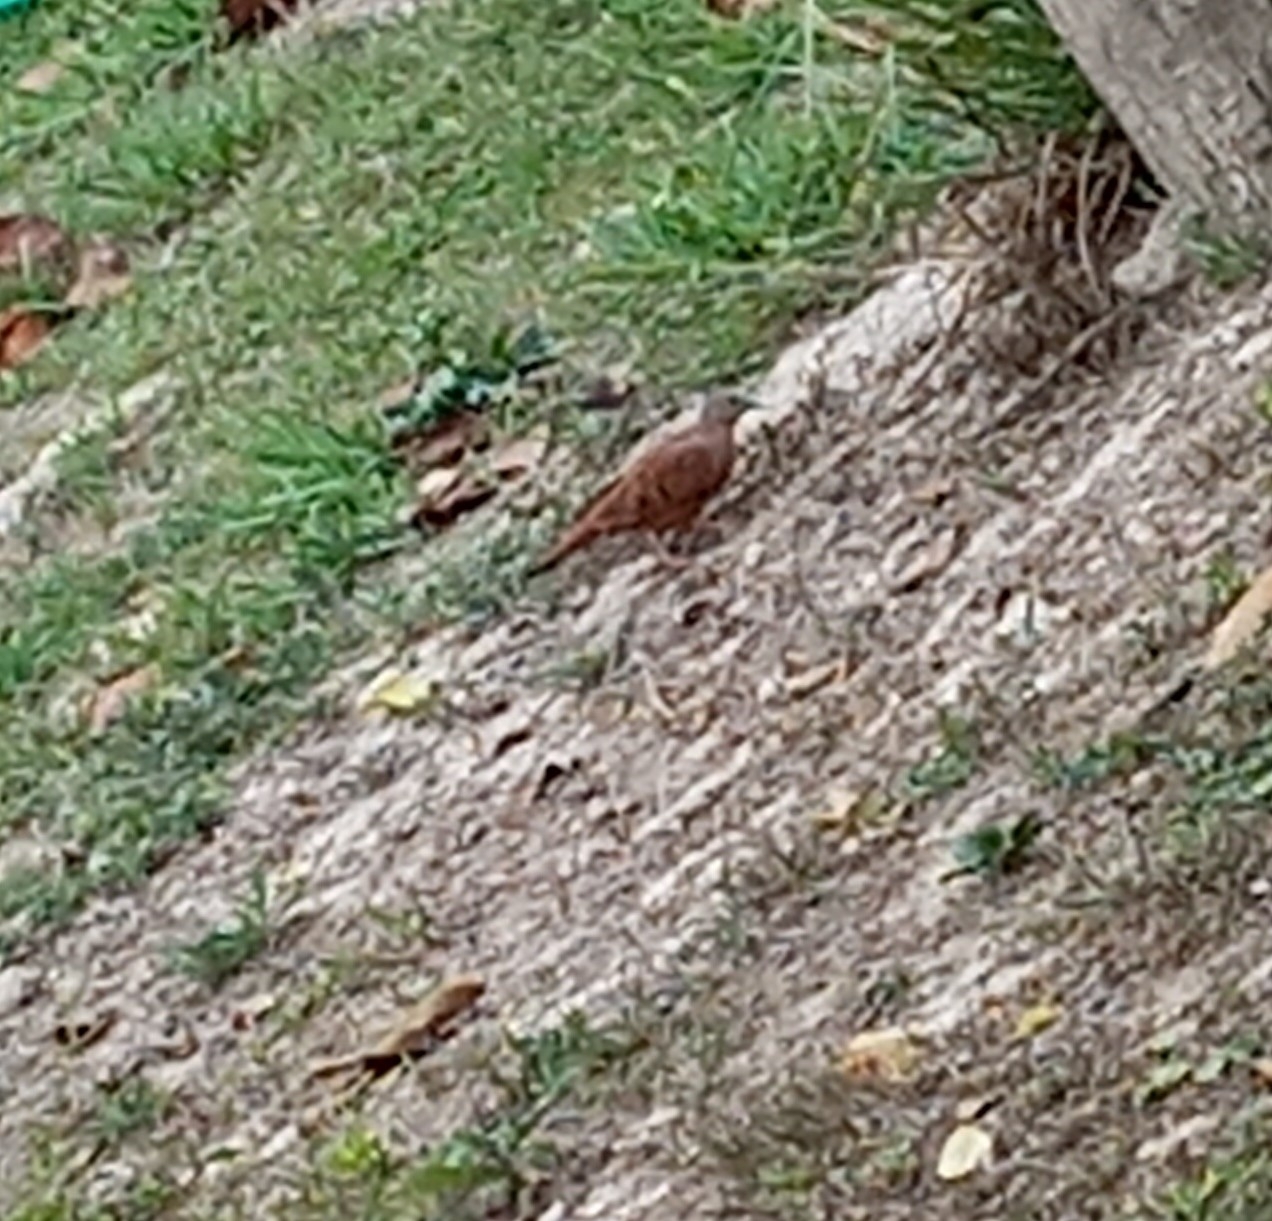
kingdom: Animalia
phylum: Chordata
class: Aves
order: Columbiformes
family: Columbidae
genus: Columbina
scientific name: Columbina talpacoti
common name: Ruddy ground dove
